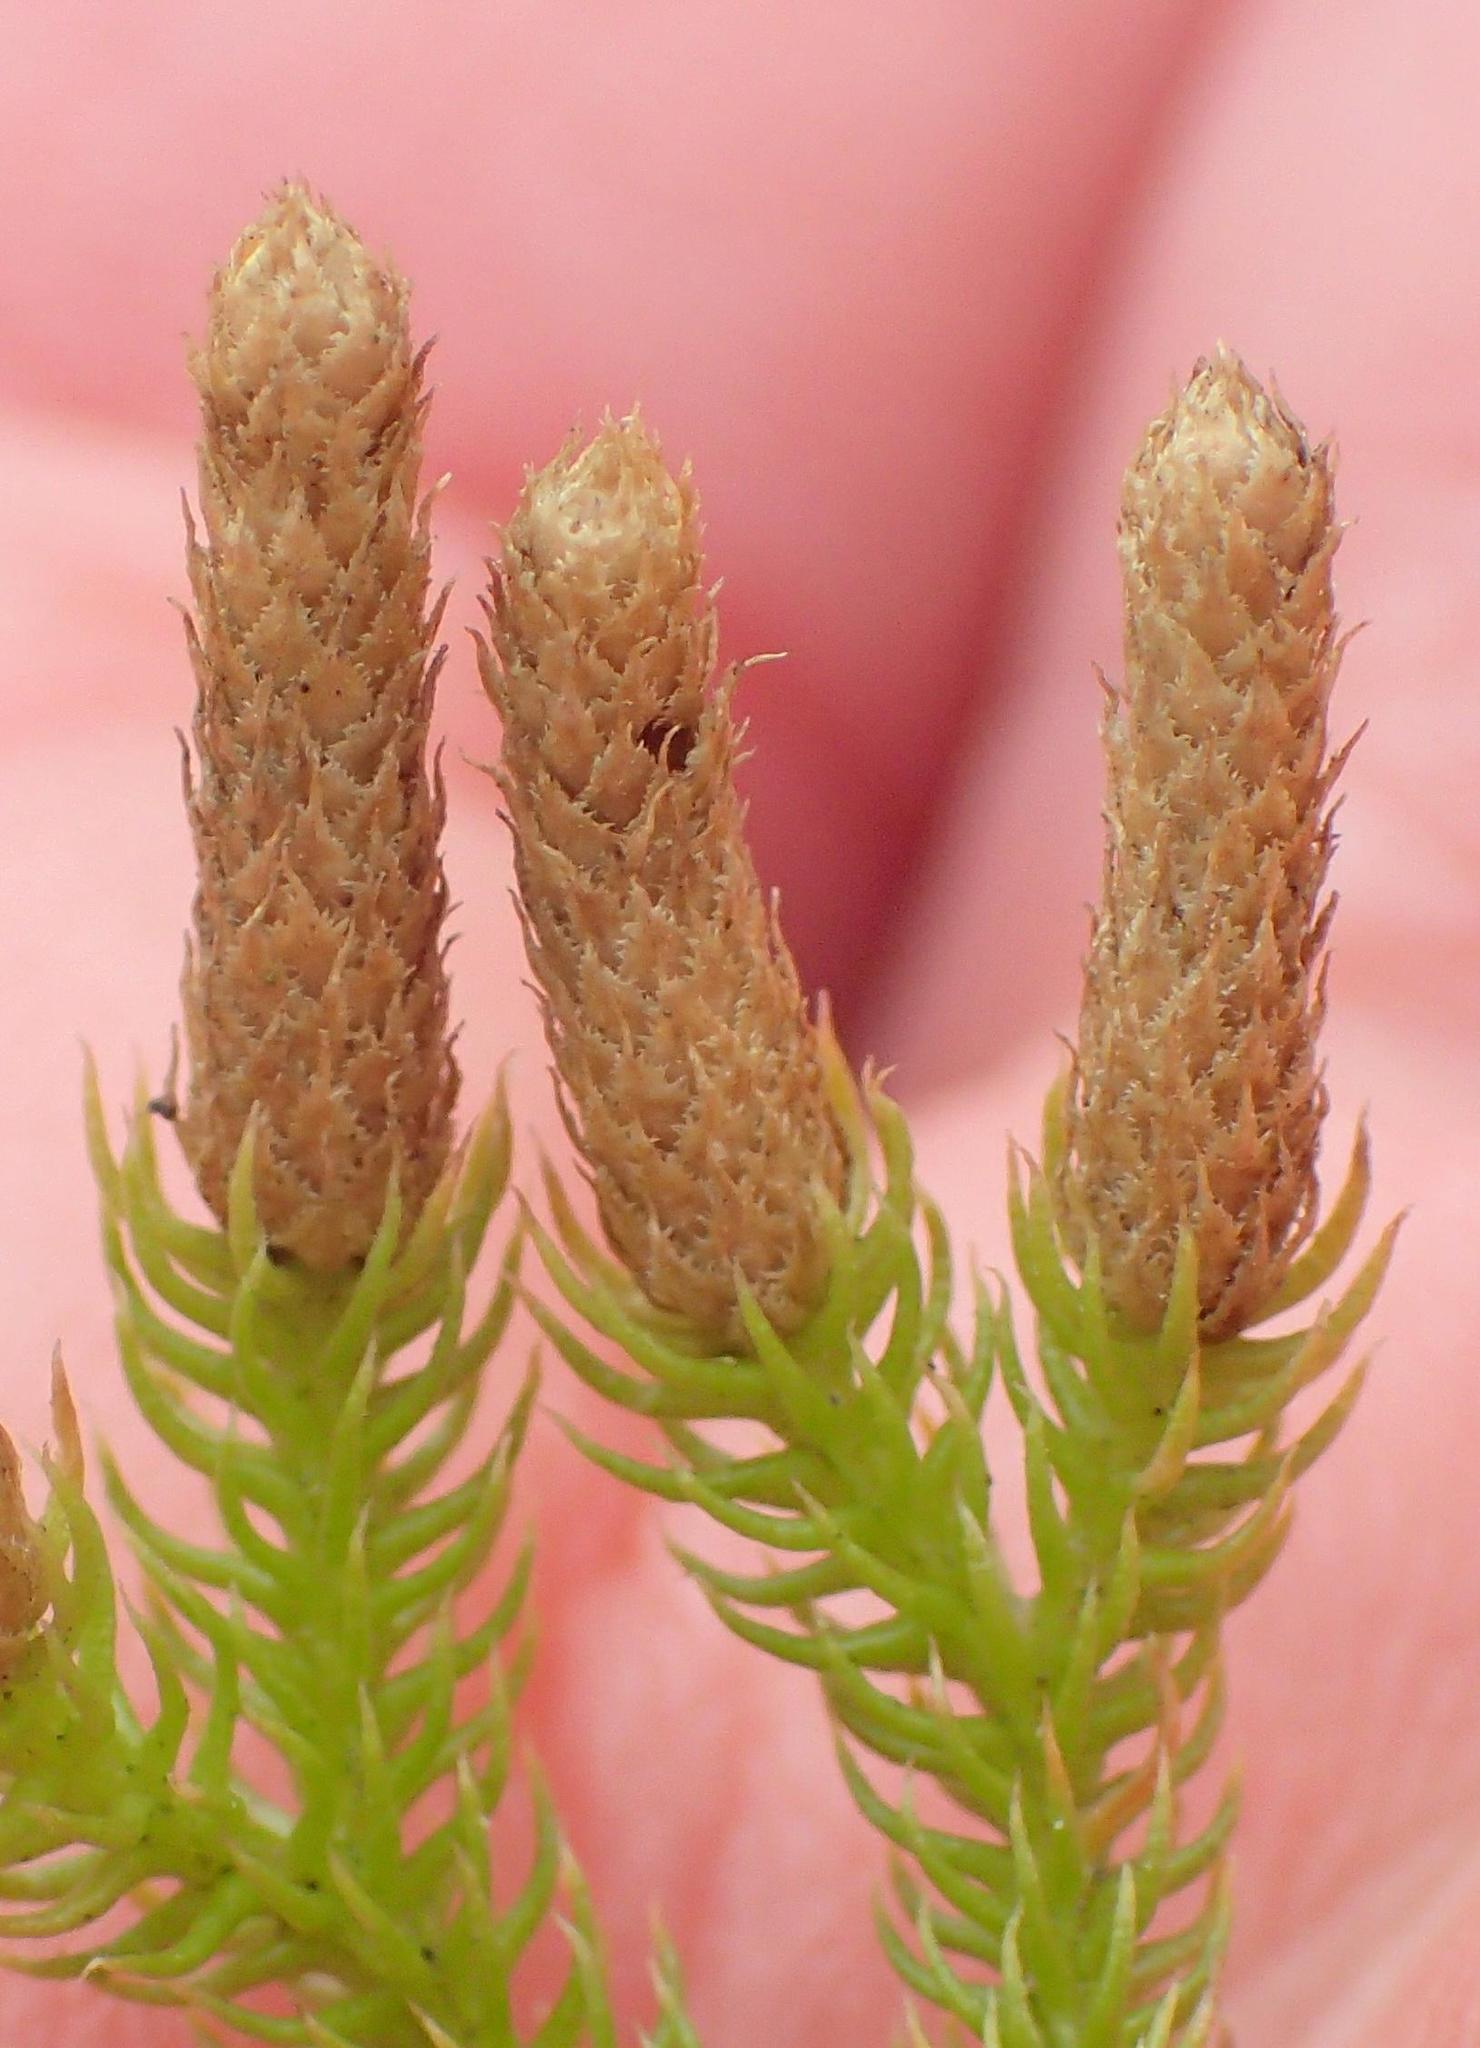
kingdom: Plantae
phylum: Tracheophyta
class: Lycopodiopsida
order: Lycopodiales
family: Lycopodiaceae
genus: Palhinhaea
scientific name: Palhinhaea cernua
